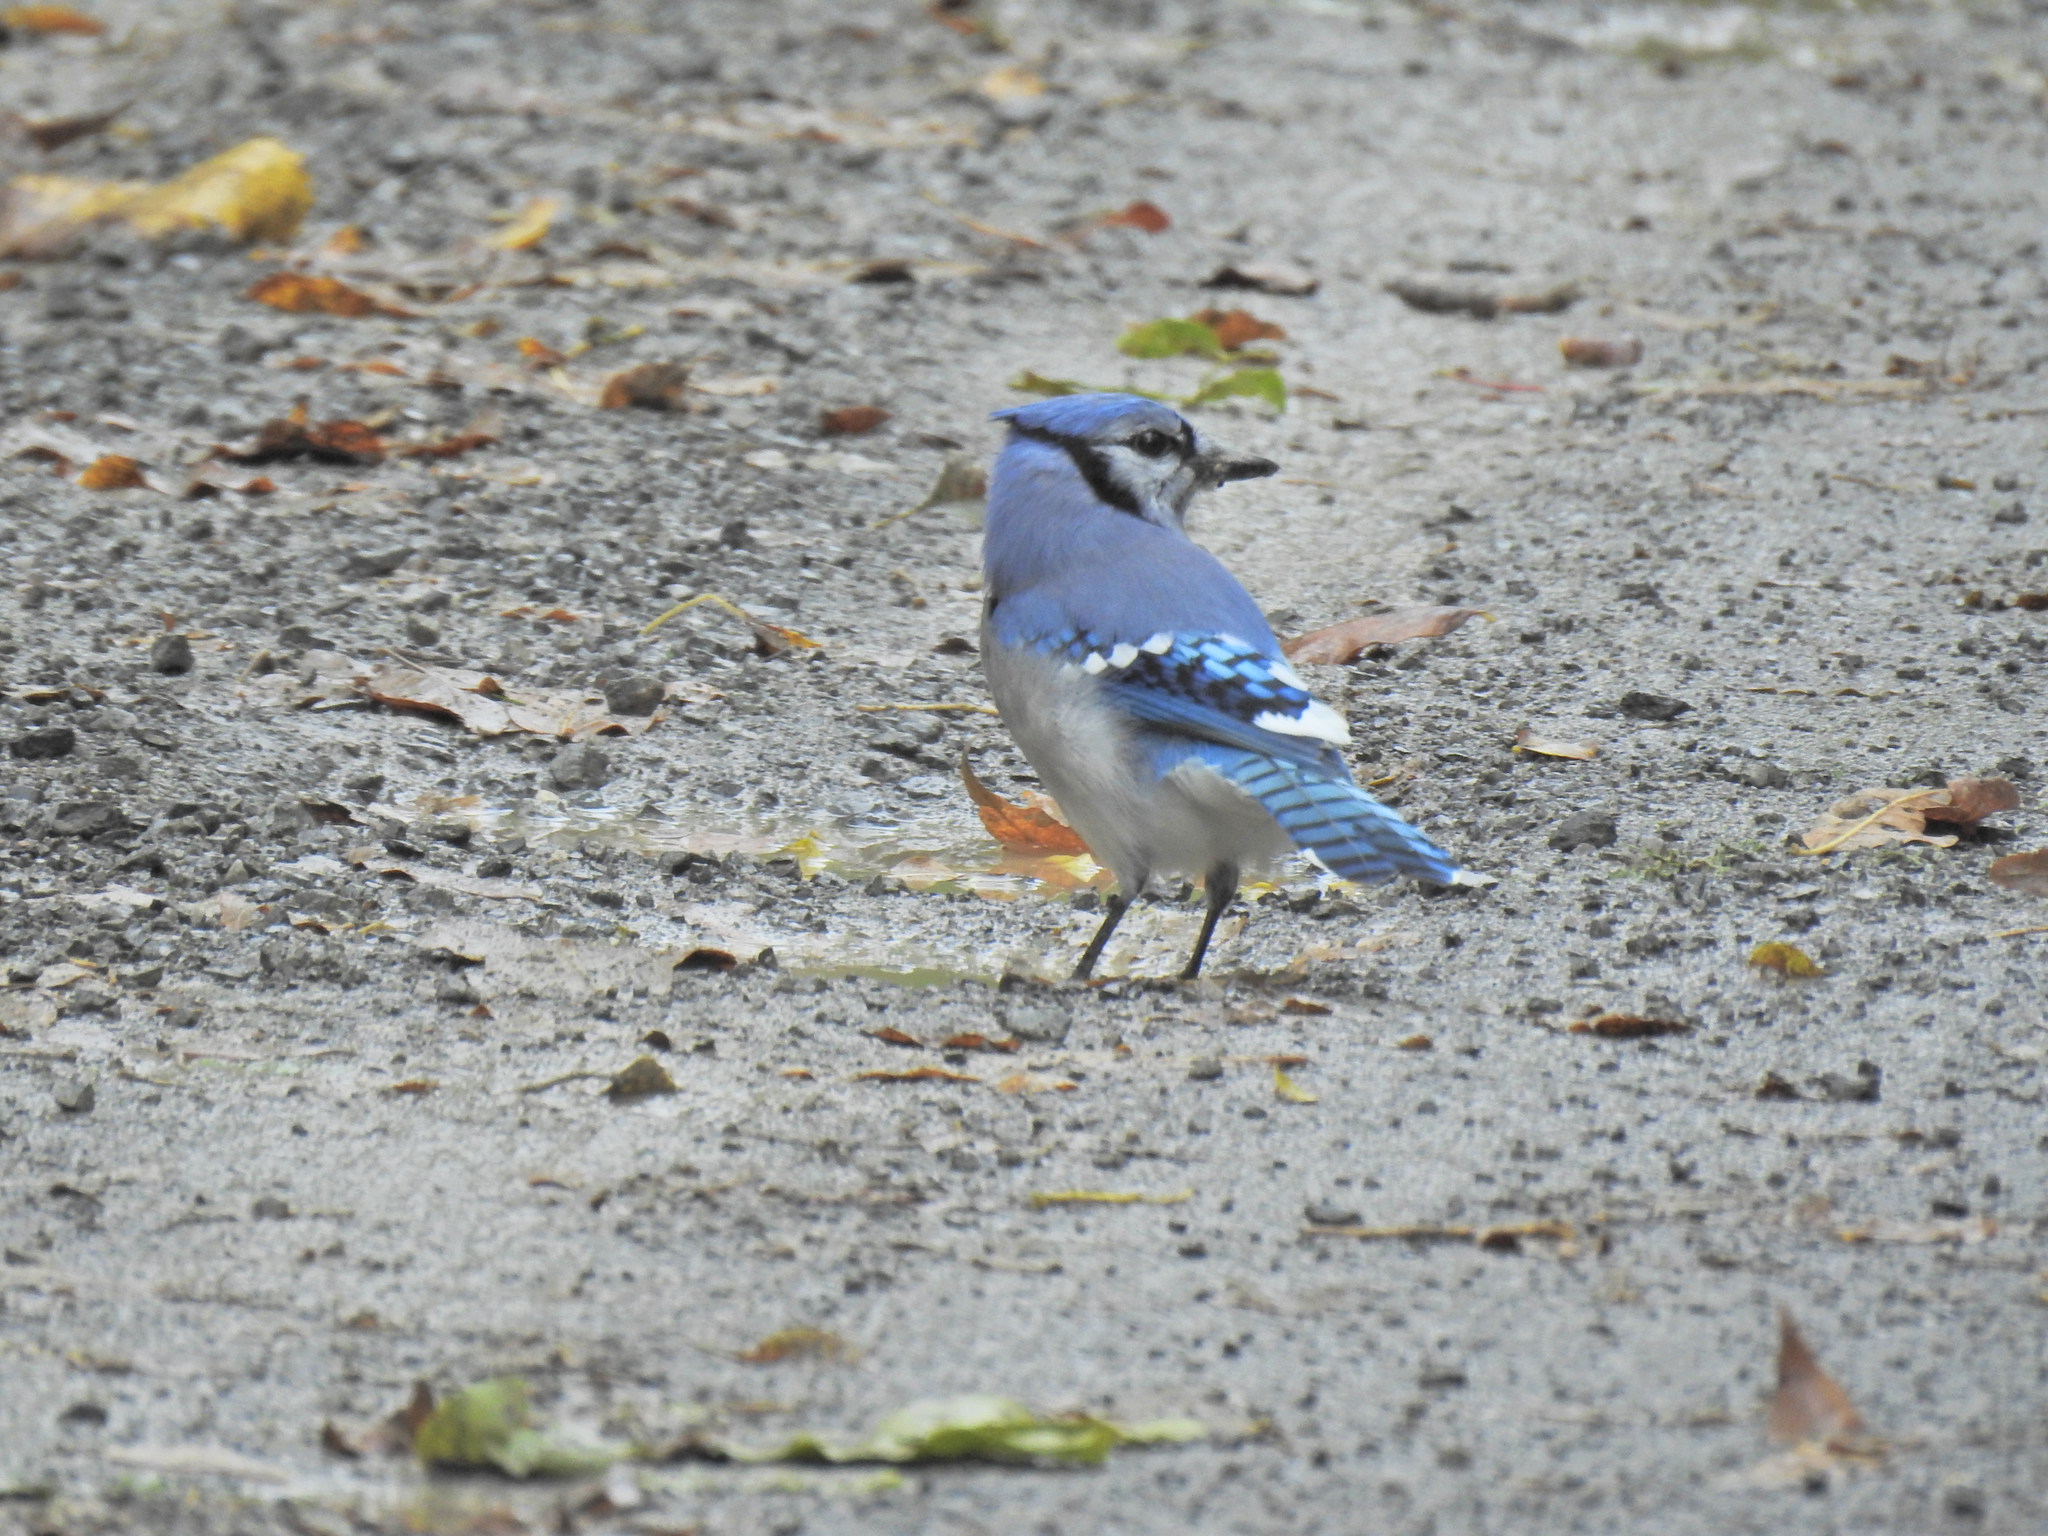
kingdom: Animalia
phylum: Chordata
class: Aves
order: Passeriformes
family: Corvidae
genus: Cyanocitta
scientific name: Cyanocitta cristata
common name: Blue jay
